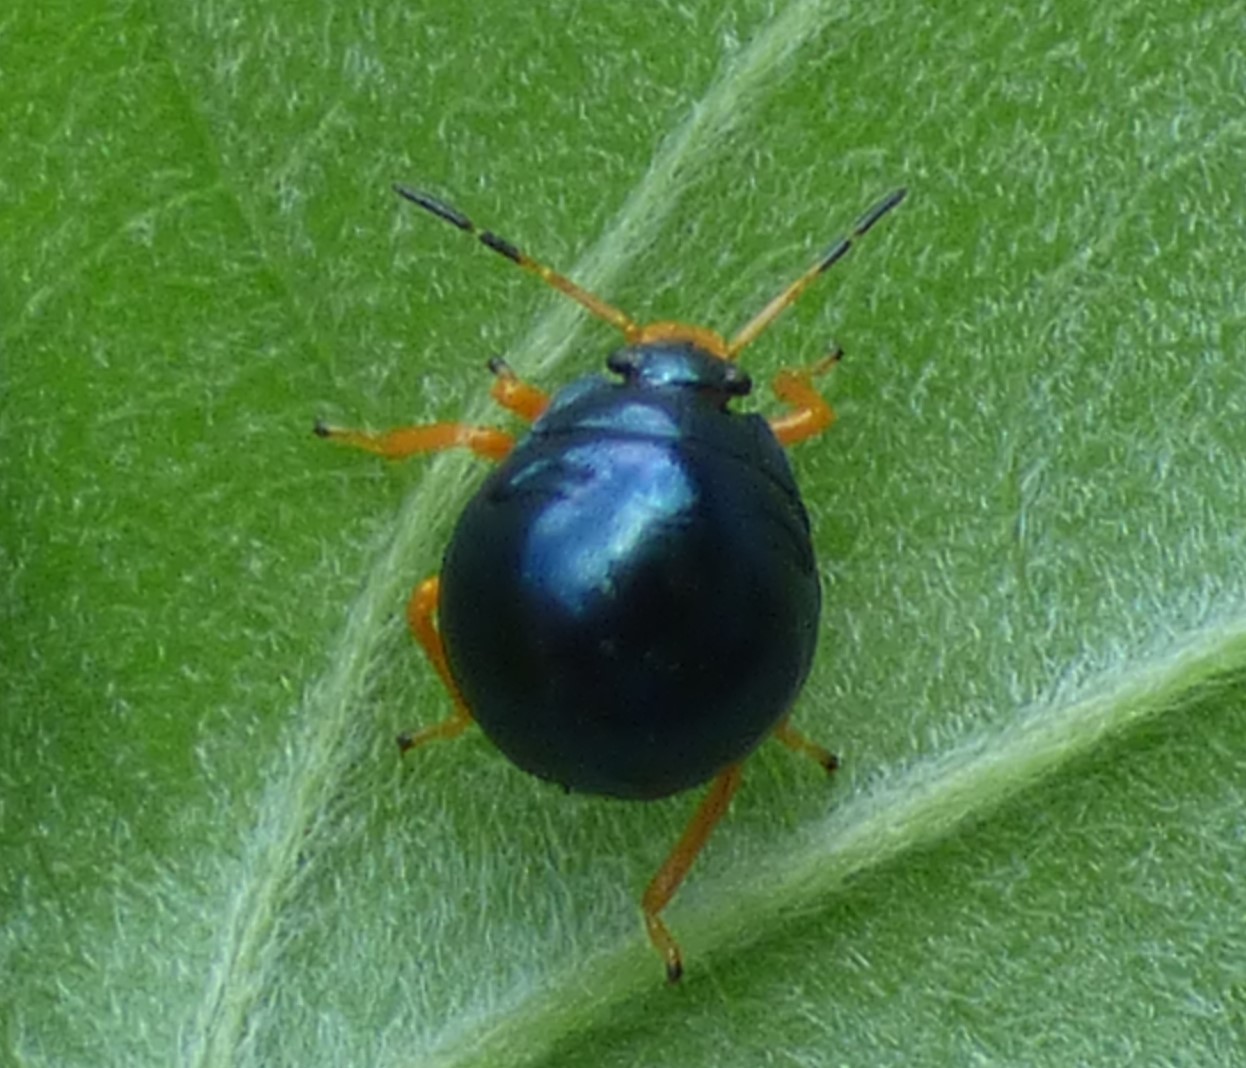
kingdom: Animalia
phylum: Arthropoda
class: Insecta
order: Hemiptera
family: Pentatomidae
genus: Stiretrus
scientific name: Stiretrus anchorago
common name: Anchor stink bug
